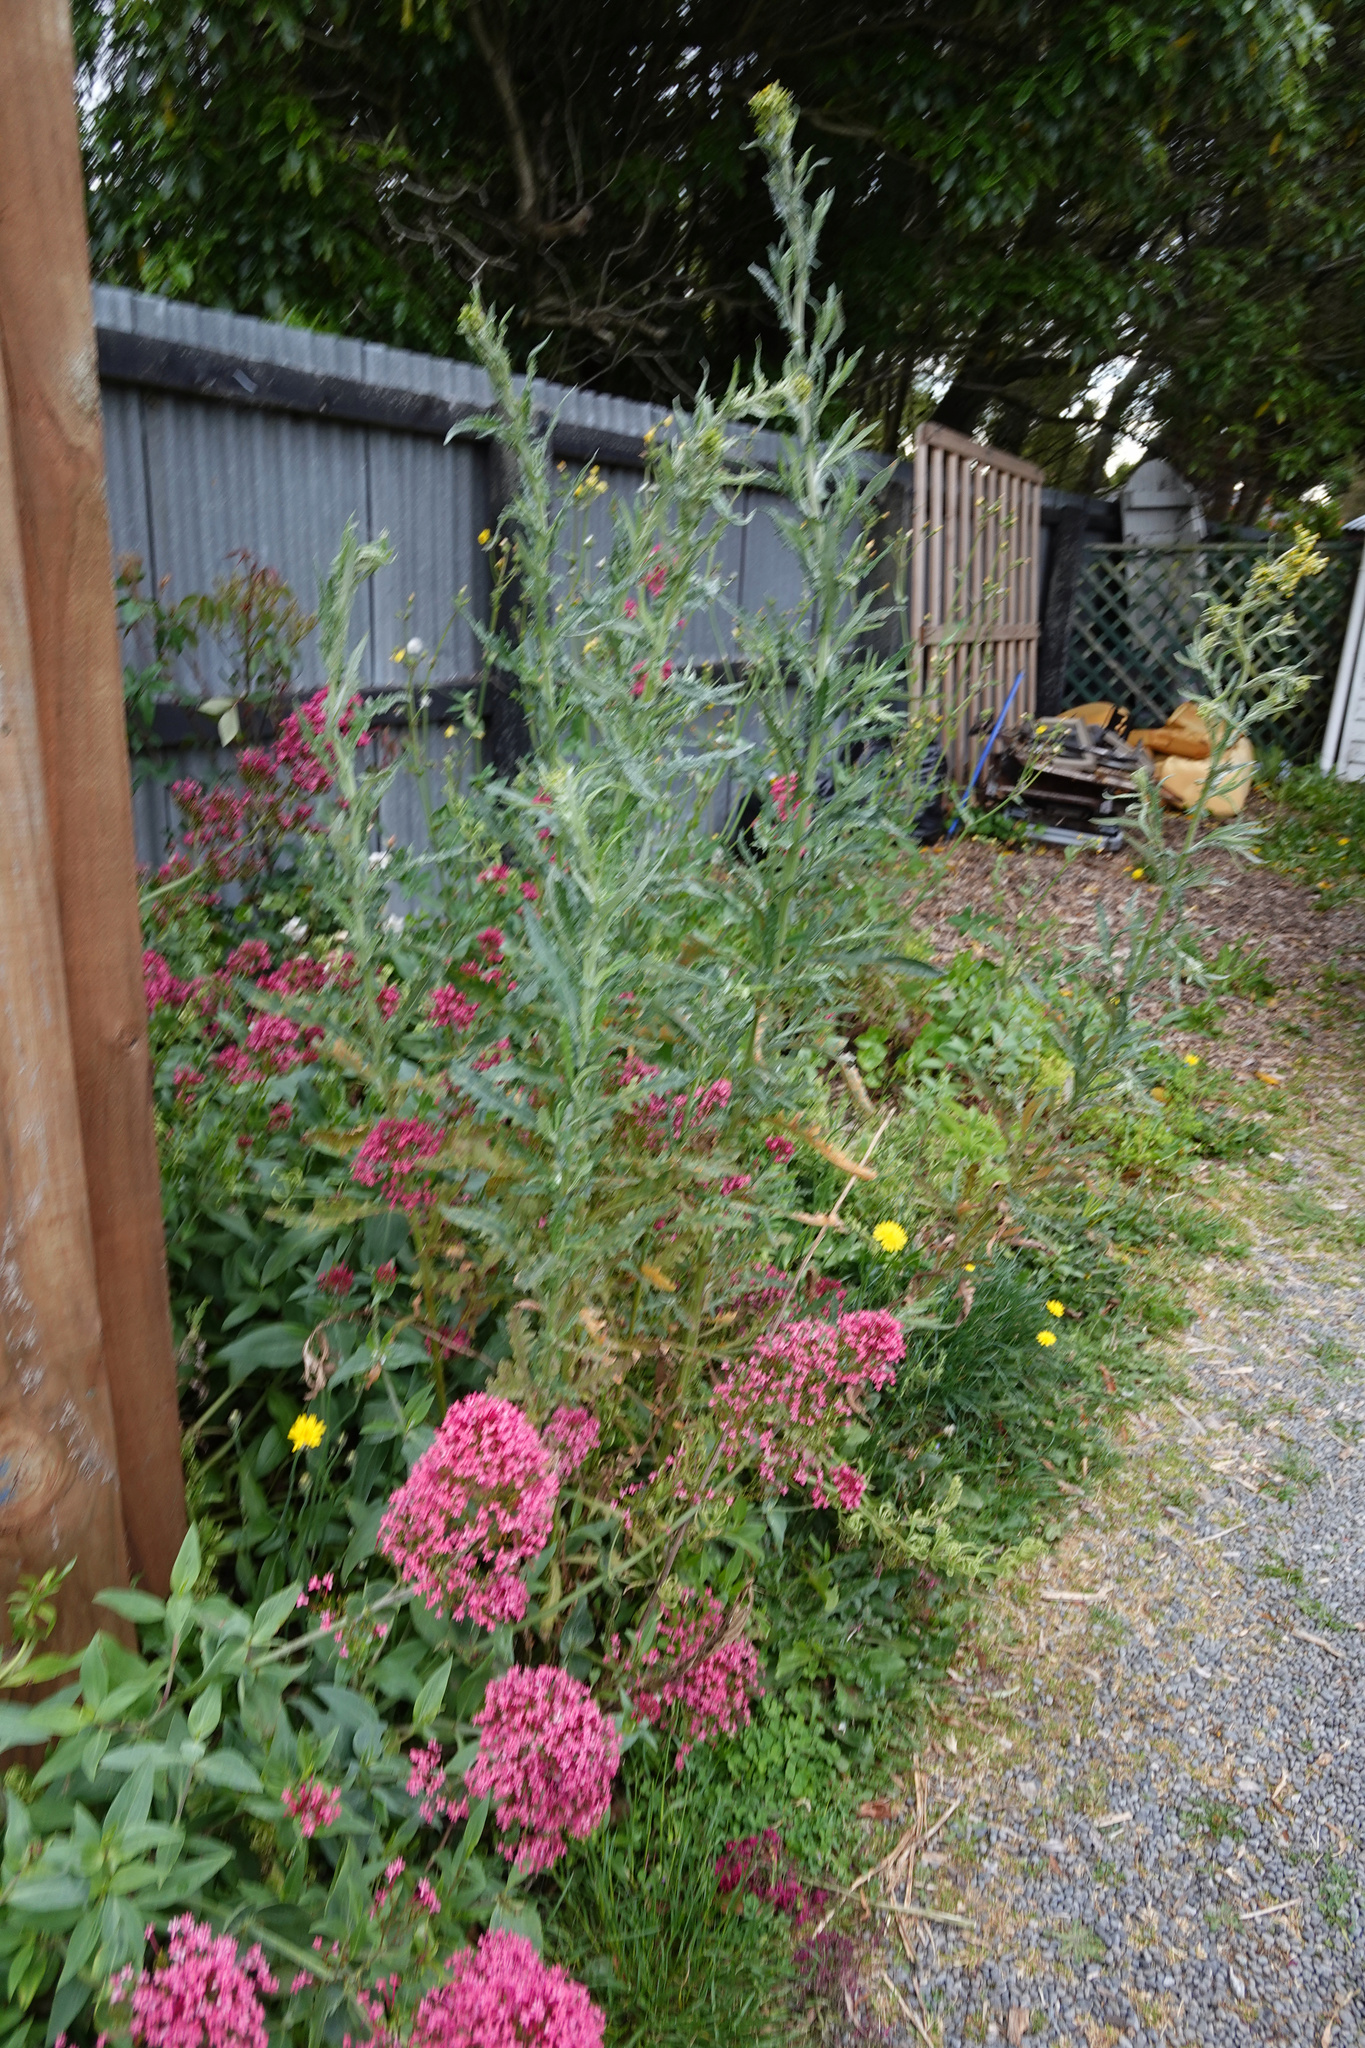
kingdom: Plantae
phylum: Tracheophyta
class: Magnoliopsida
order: Asterales
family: Asteraceae
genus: Senecio
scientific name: Senecio glomeratus
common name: Cutleaf burnweed
